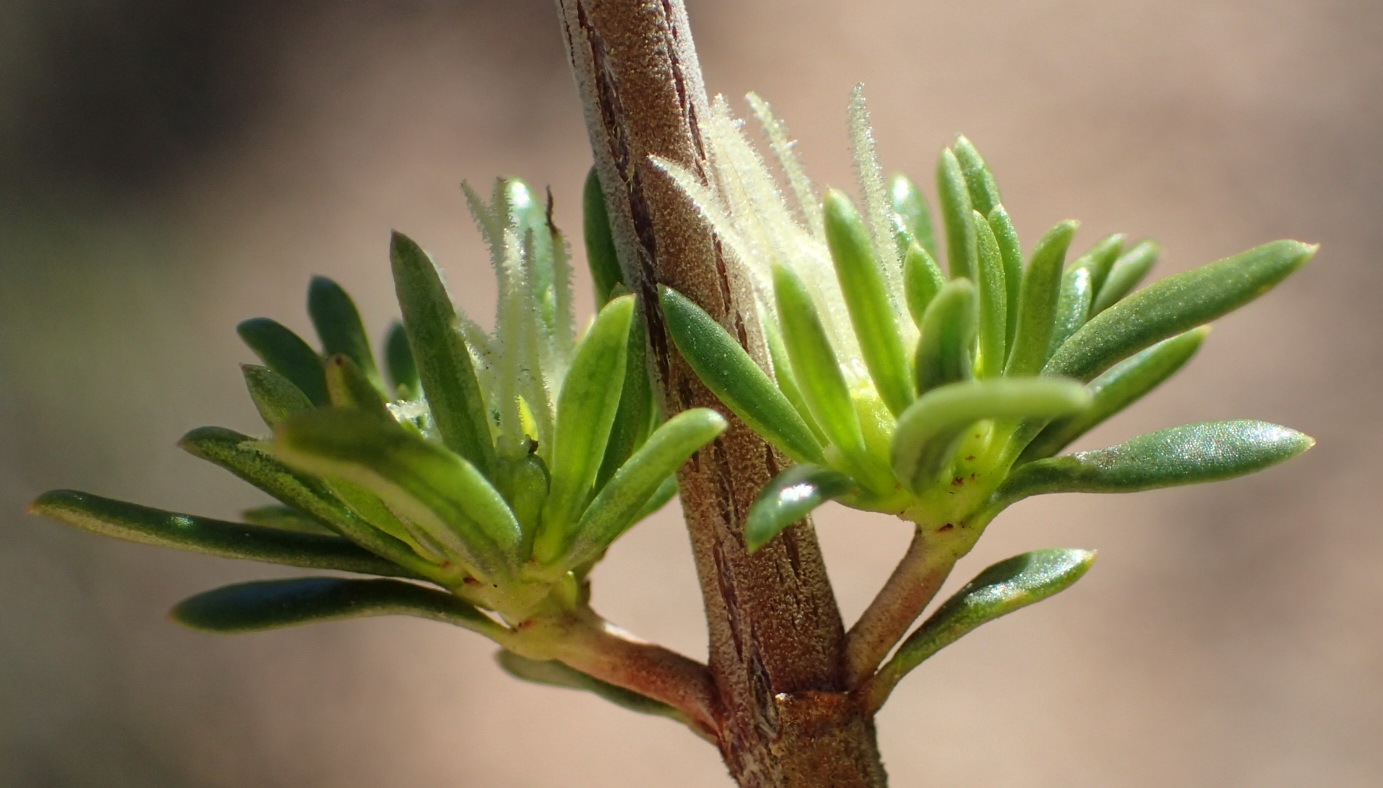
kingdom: Plantae
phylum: Tracheophyta
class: Magnoliopsida
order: Gentianales
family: Rubiaceae
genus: Anthospermum
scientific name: Anthospermum spathulatum
